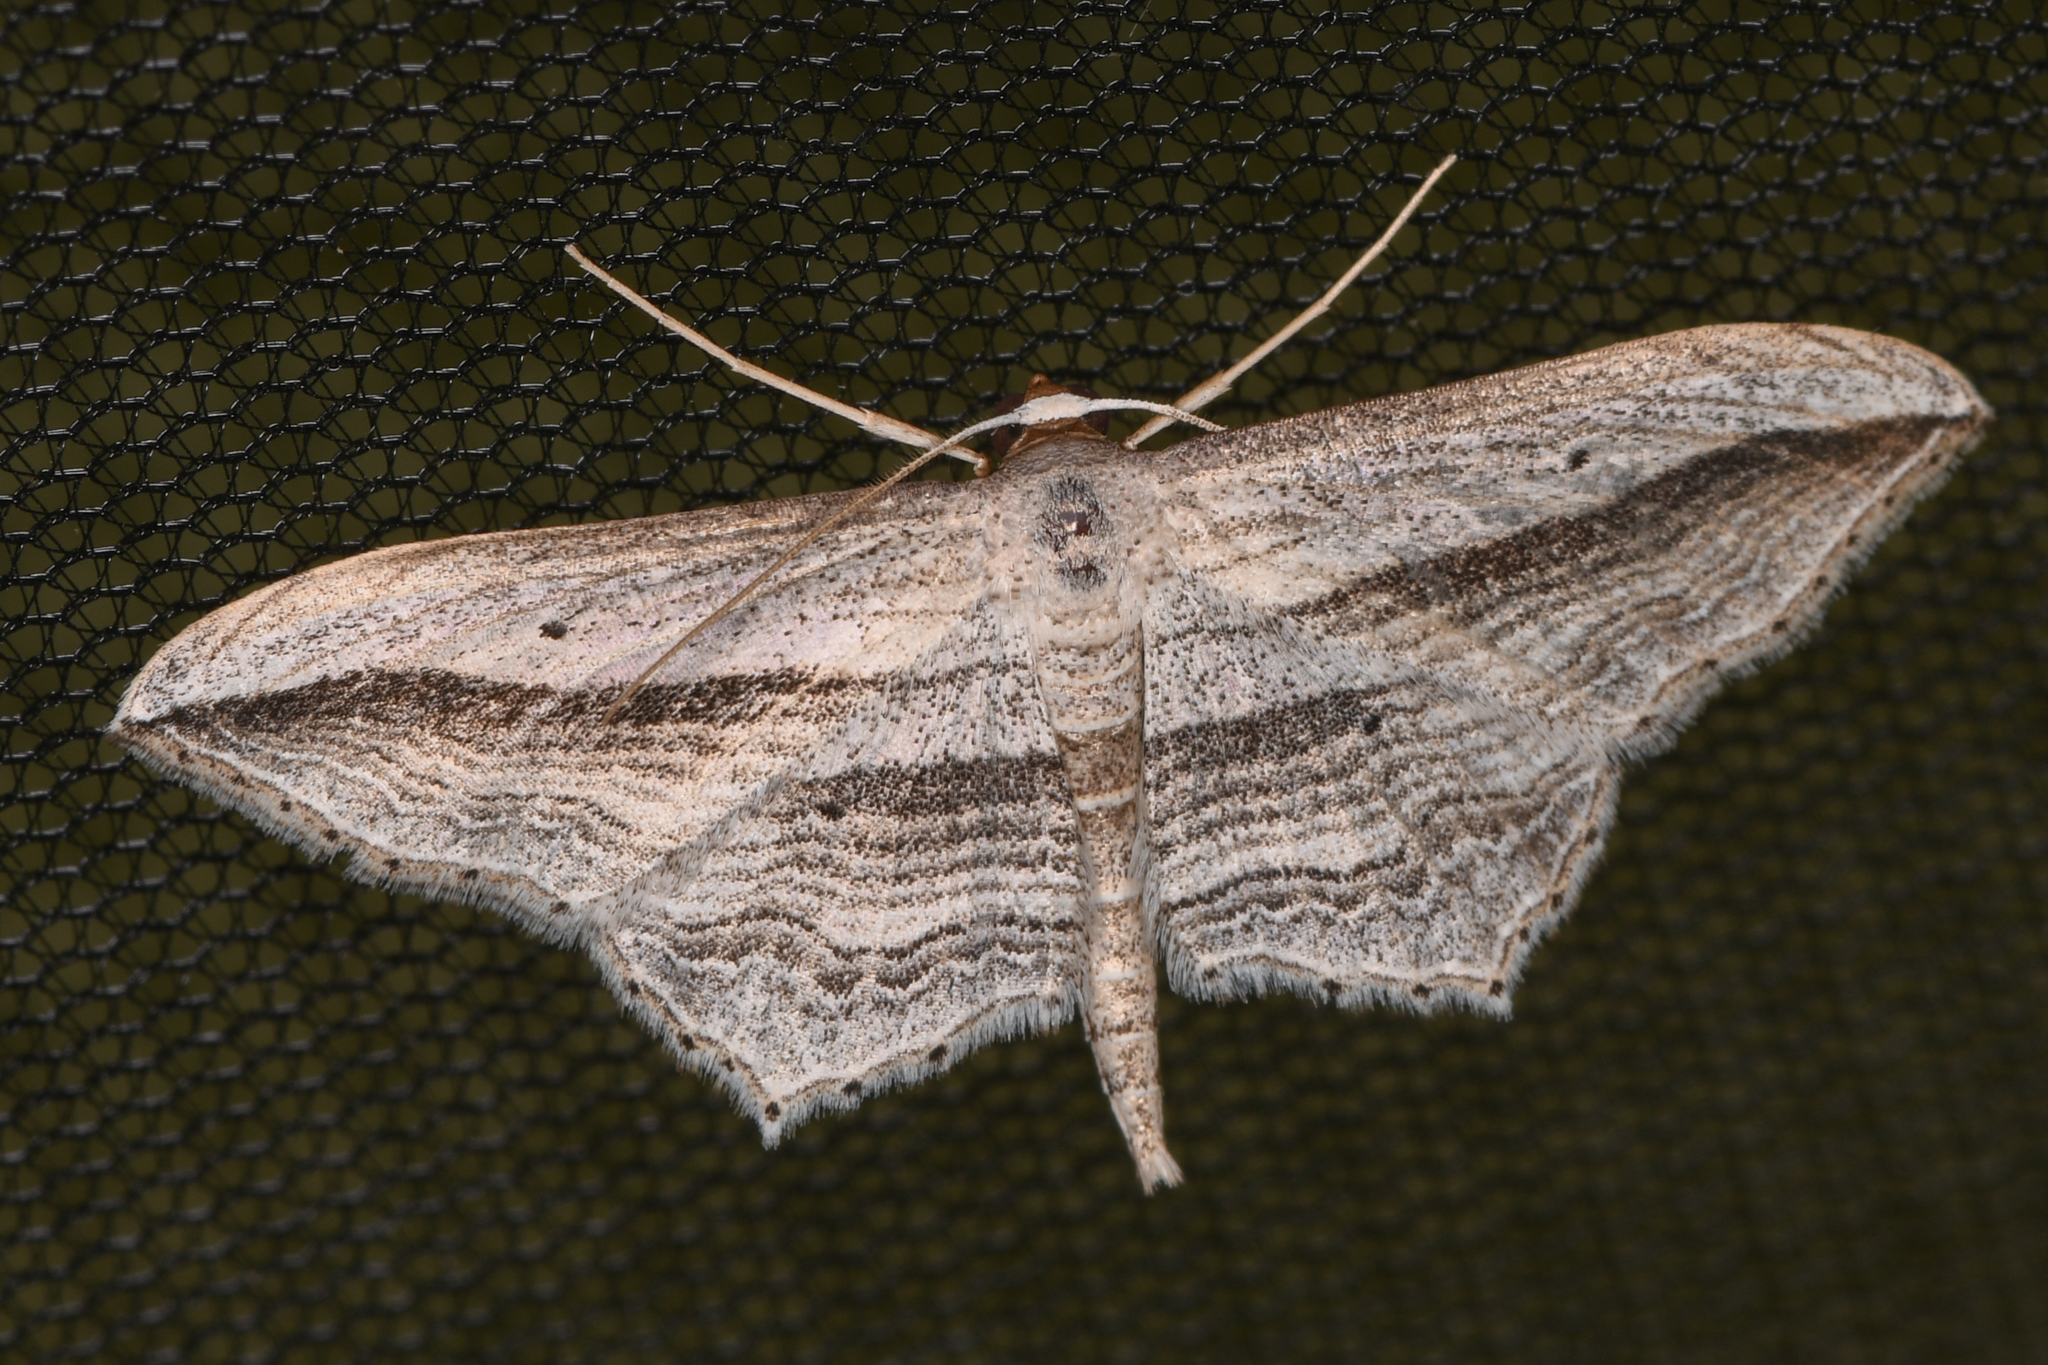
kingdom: Animalia
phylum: Arthropoda
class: Insecta
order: Lepidoptera
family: Geometridae
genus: Arcobara
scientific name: Arcobara multilineata
